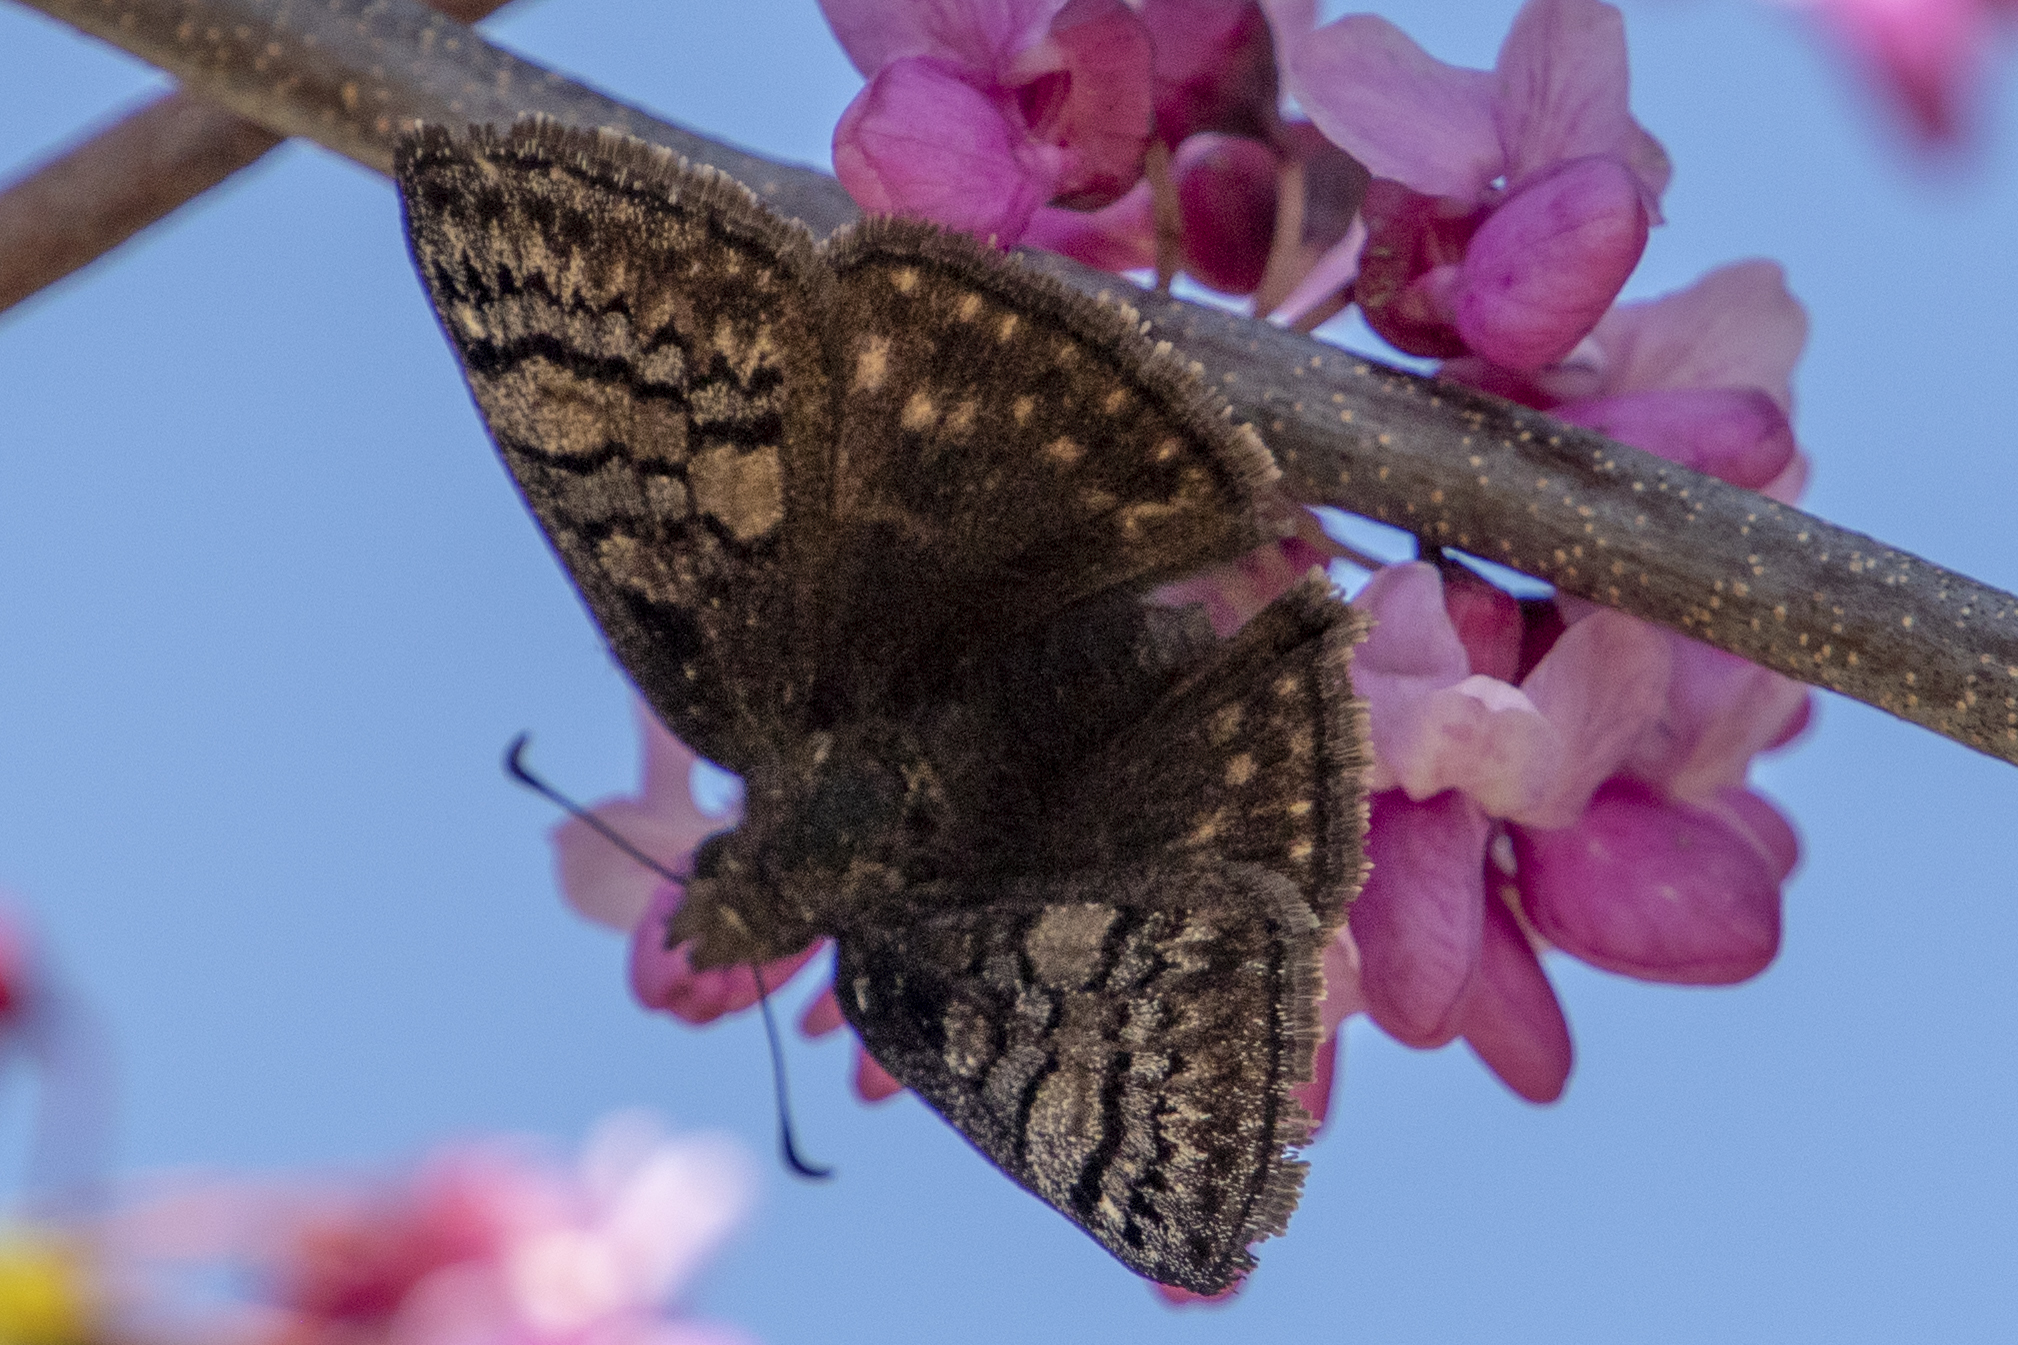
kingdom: Animalia
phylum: Arthropoda
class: Insecta
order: Lepidoptera
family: Hesperiidae
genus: Erynnis
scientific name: Erynnis brizo
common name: Sleepy duskywing
